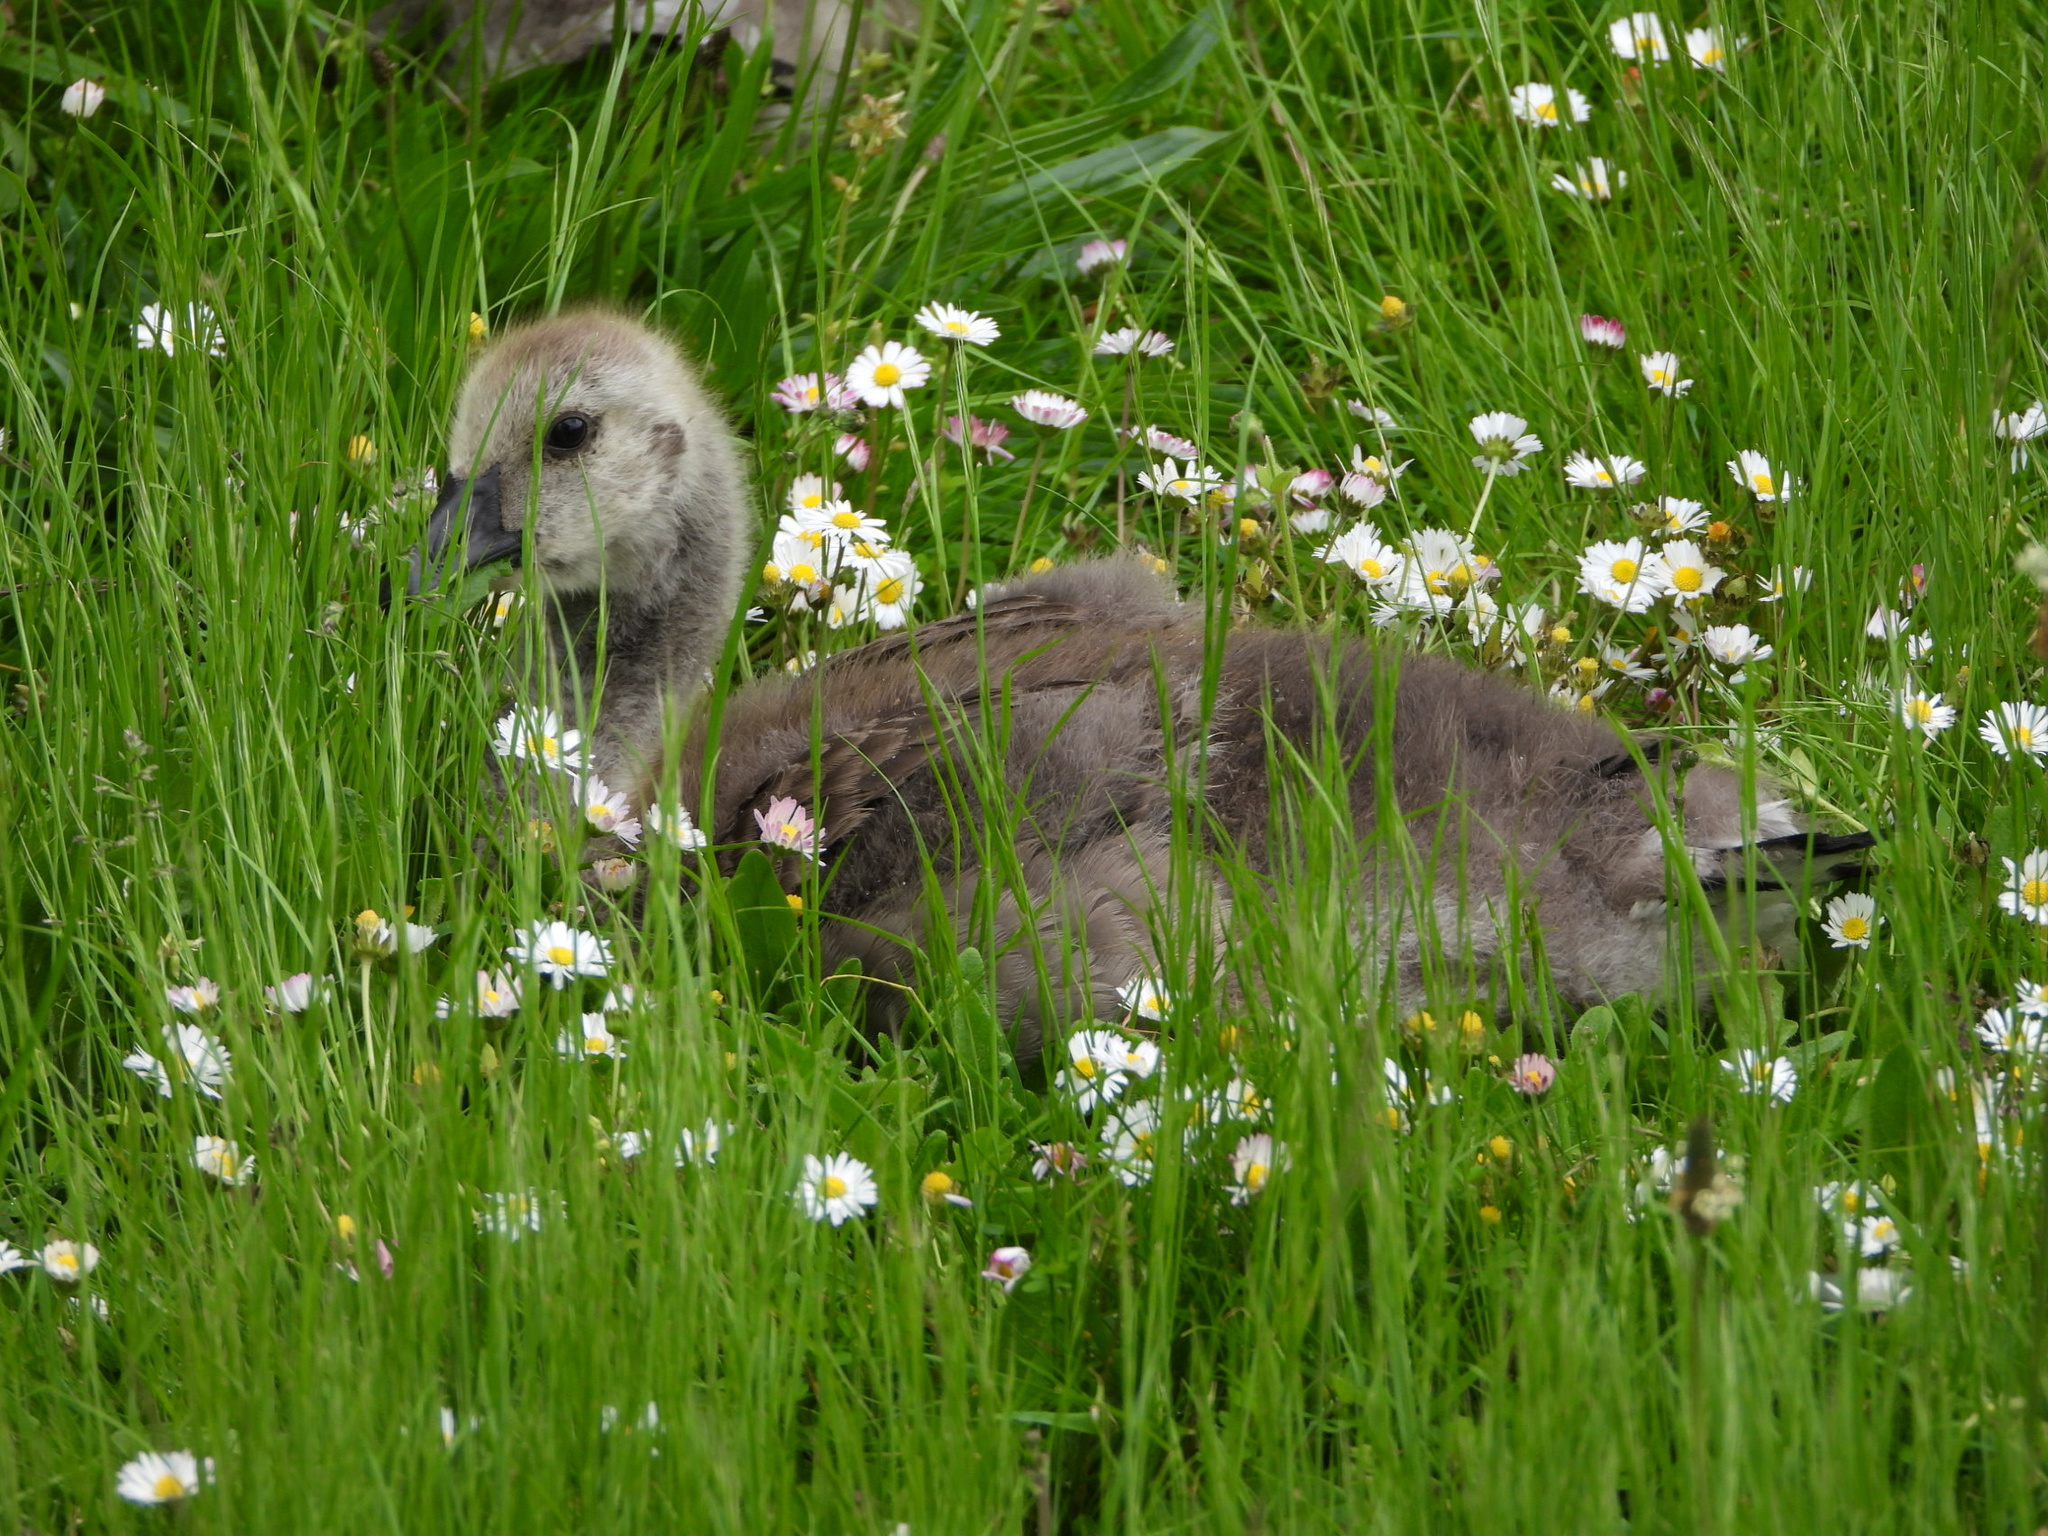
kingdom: Animalia
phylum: Chordata
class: Aves
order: Anseriformes
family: Anatidae
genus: Branta
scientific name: Branta canadensis
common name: Canada goose
